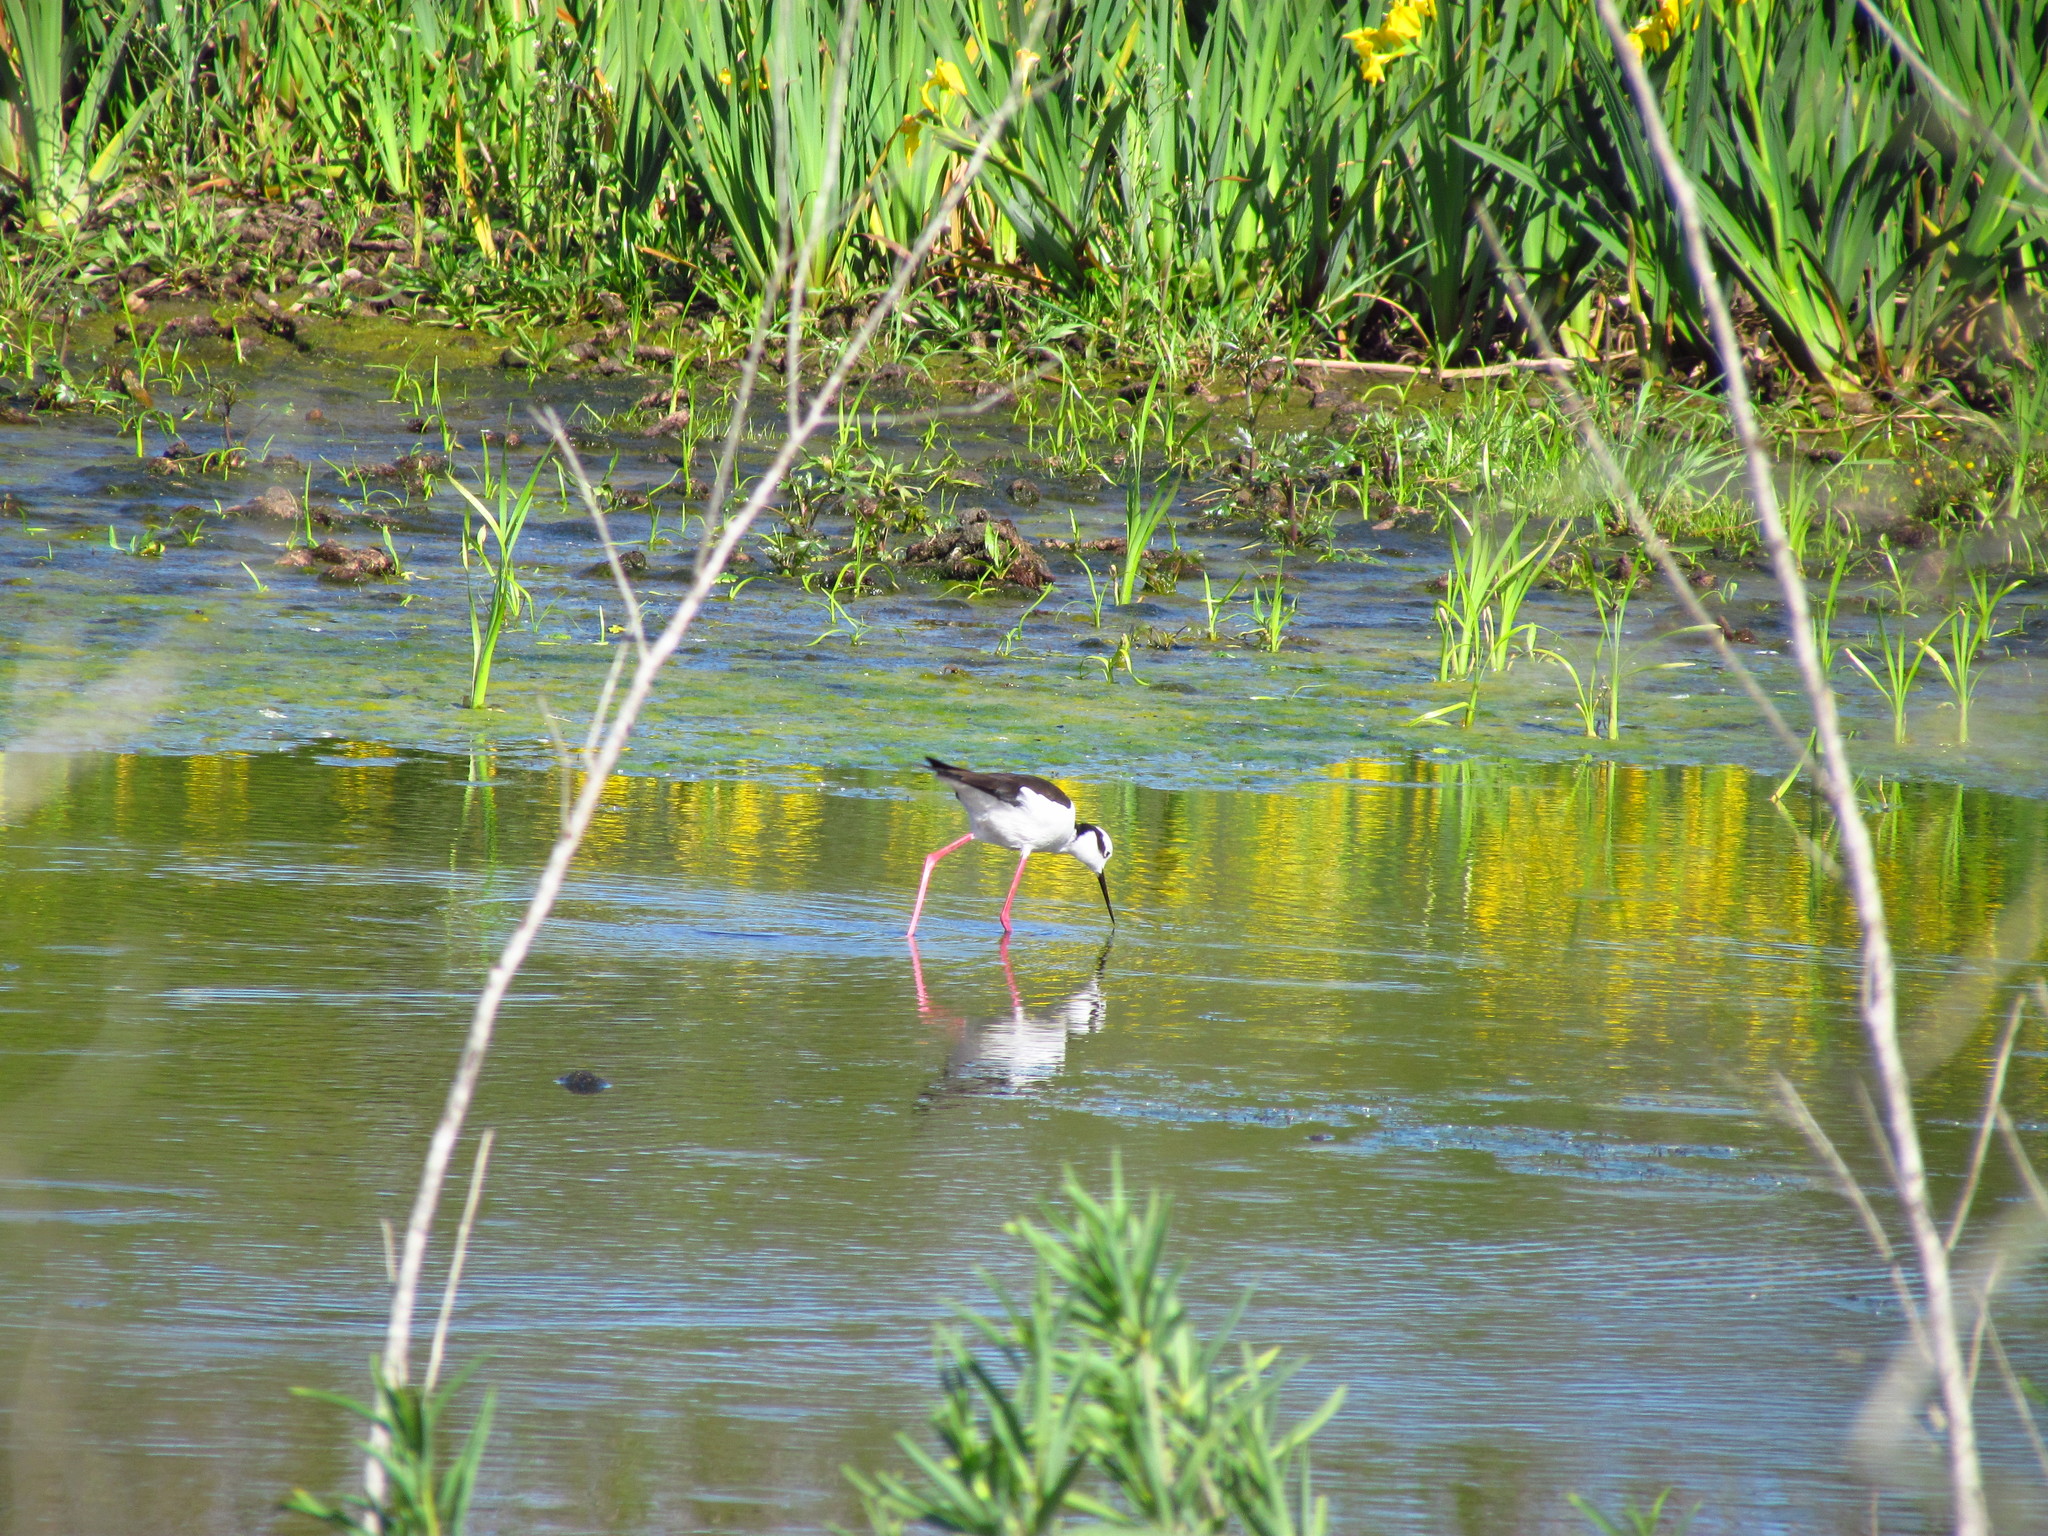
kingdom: Animalia
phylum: Chordata
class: Aves
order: Charadriiformes
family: Recurvirostridae
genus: Himantopus
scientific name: Himantopus mexicanus
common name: Black-necked stilt
